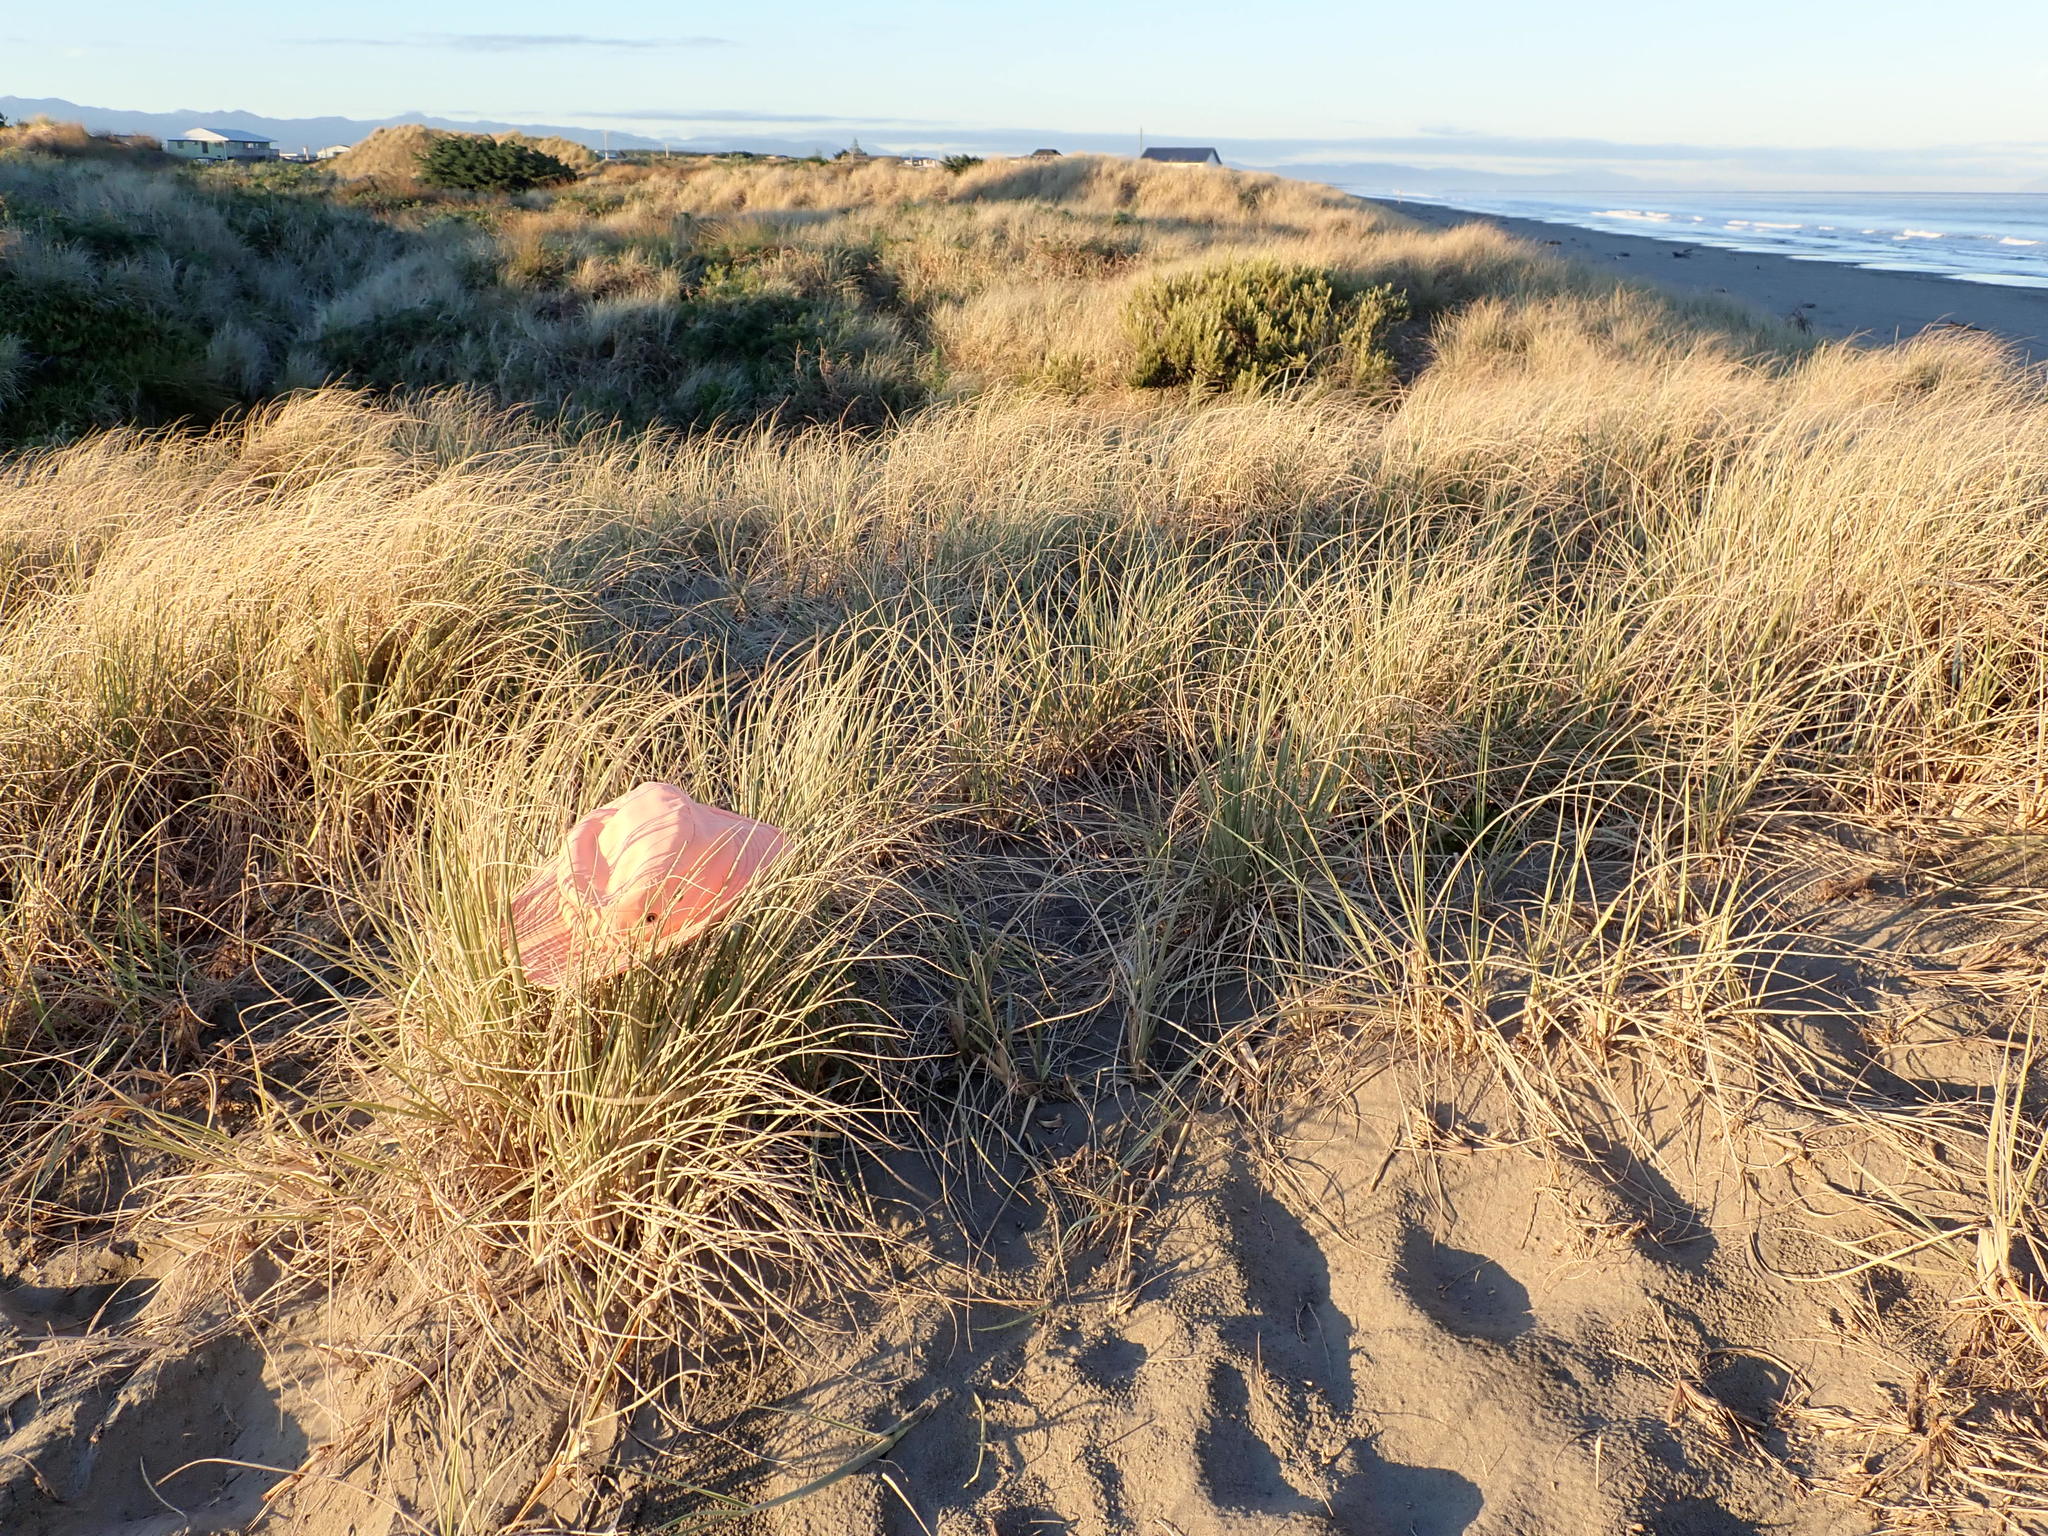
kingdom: Animalia
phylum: Arthropoda
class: Arachnida
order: Araneae
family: Theridiidae
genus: Latrodectus
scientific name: Latrodectus katipo
